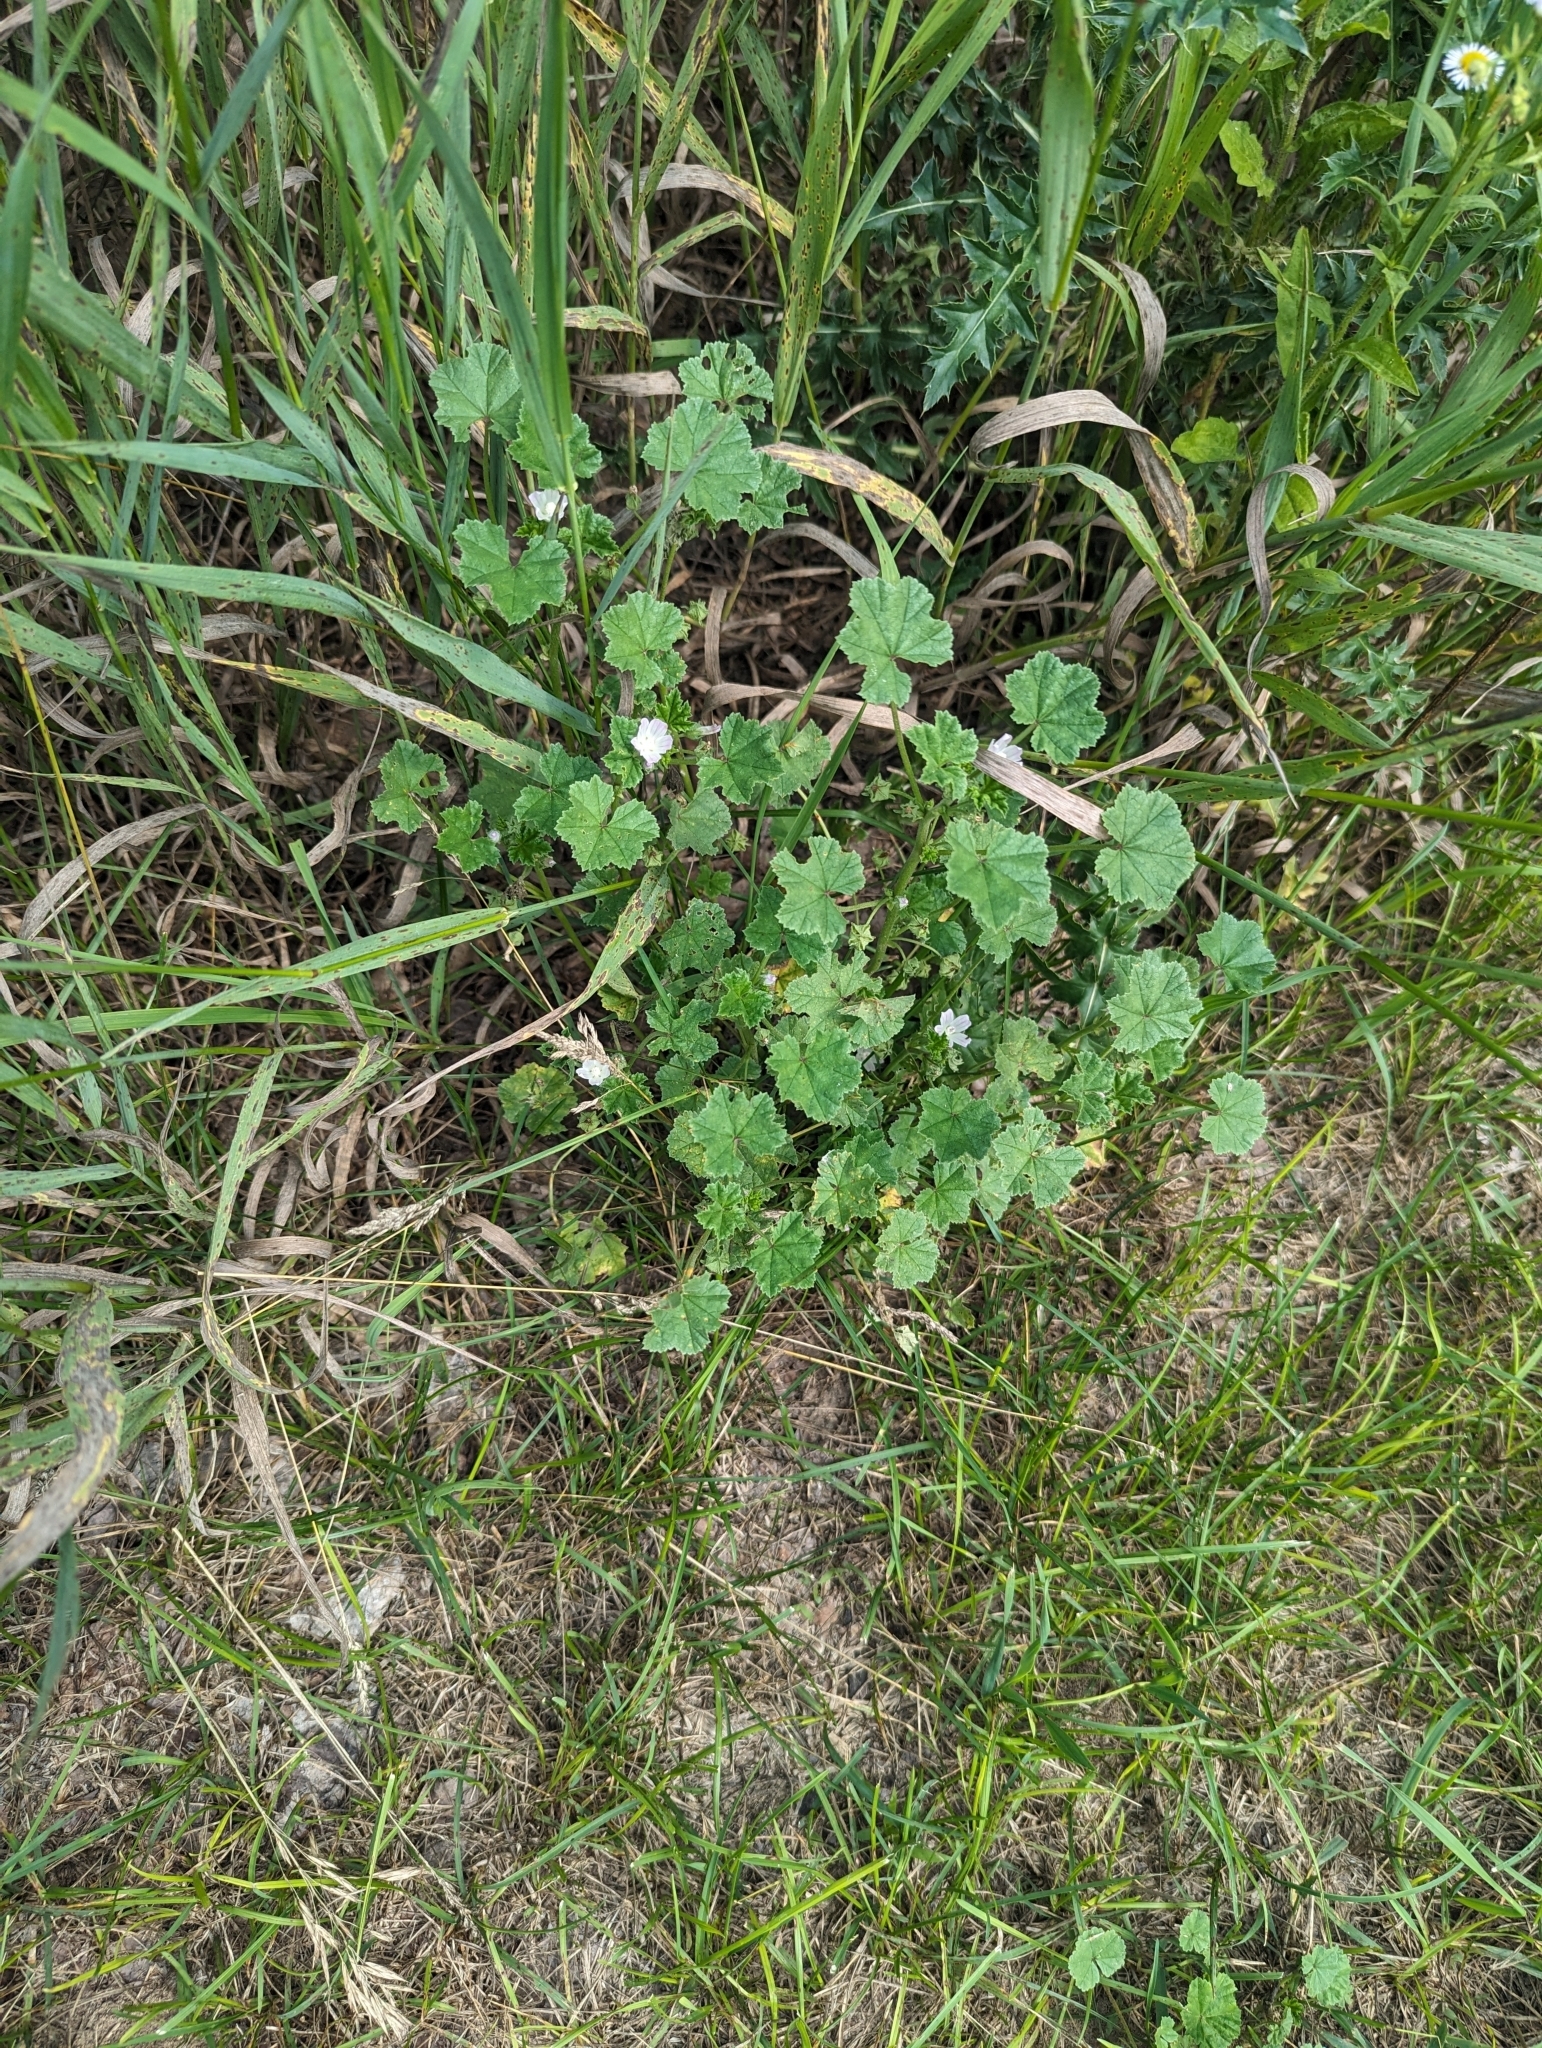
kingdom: Plantae
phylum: Tracheophyta
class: Magnoliopsida
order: Malvales
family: Malvaceae
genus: Malva
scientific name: Malva neglecta
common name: Common mallow
